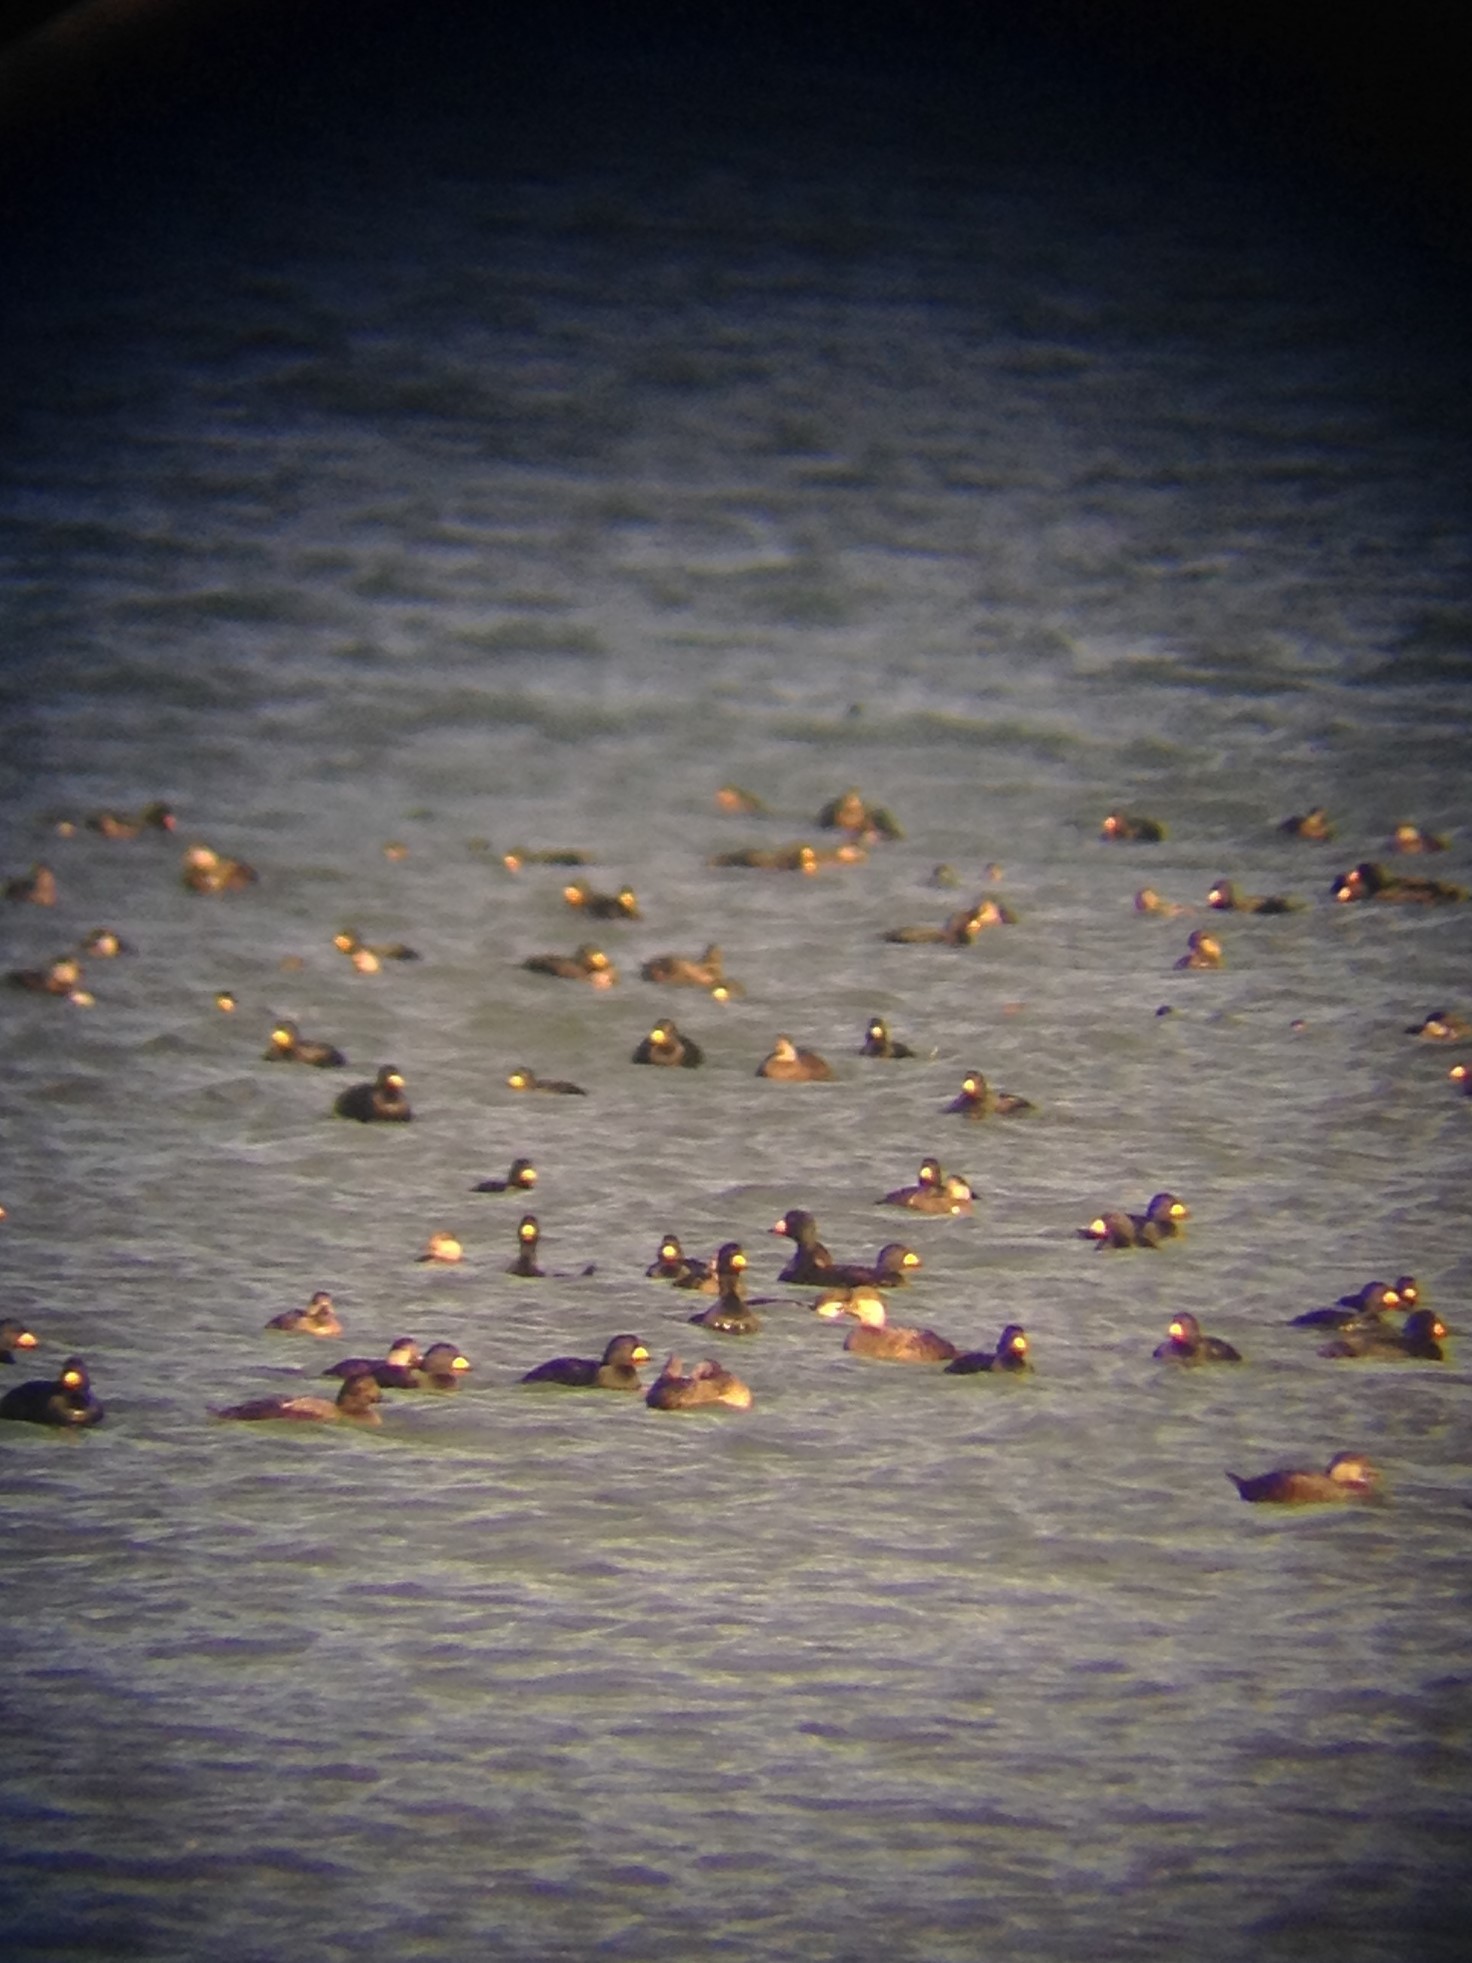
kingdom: Animalia
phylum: Chordata
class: Aves
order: Anseriformes
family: Anatidae
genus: Melanitta
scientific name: Melanitta americana
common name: Black scoter
